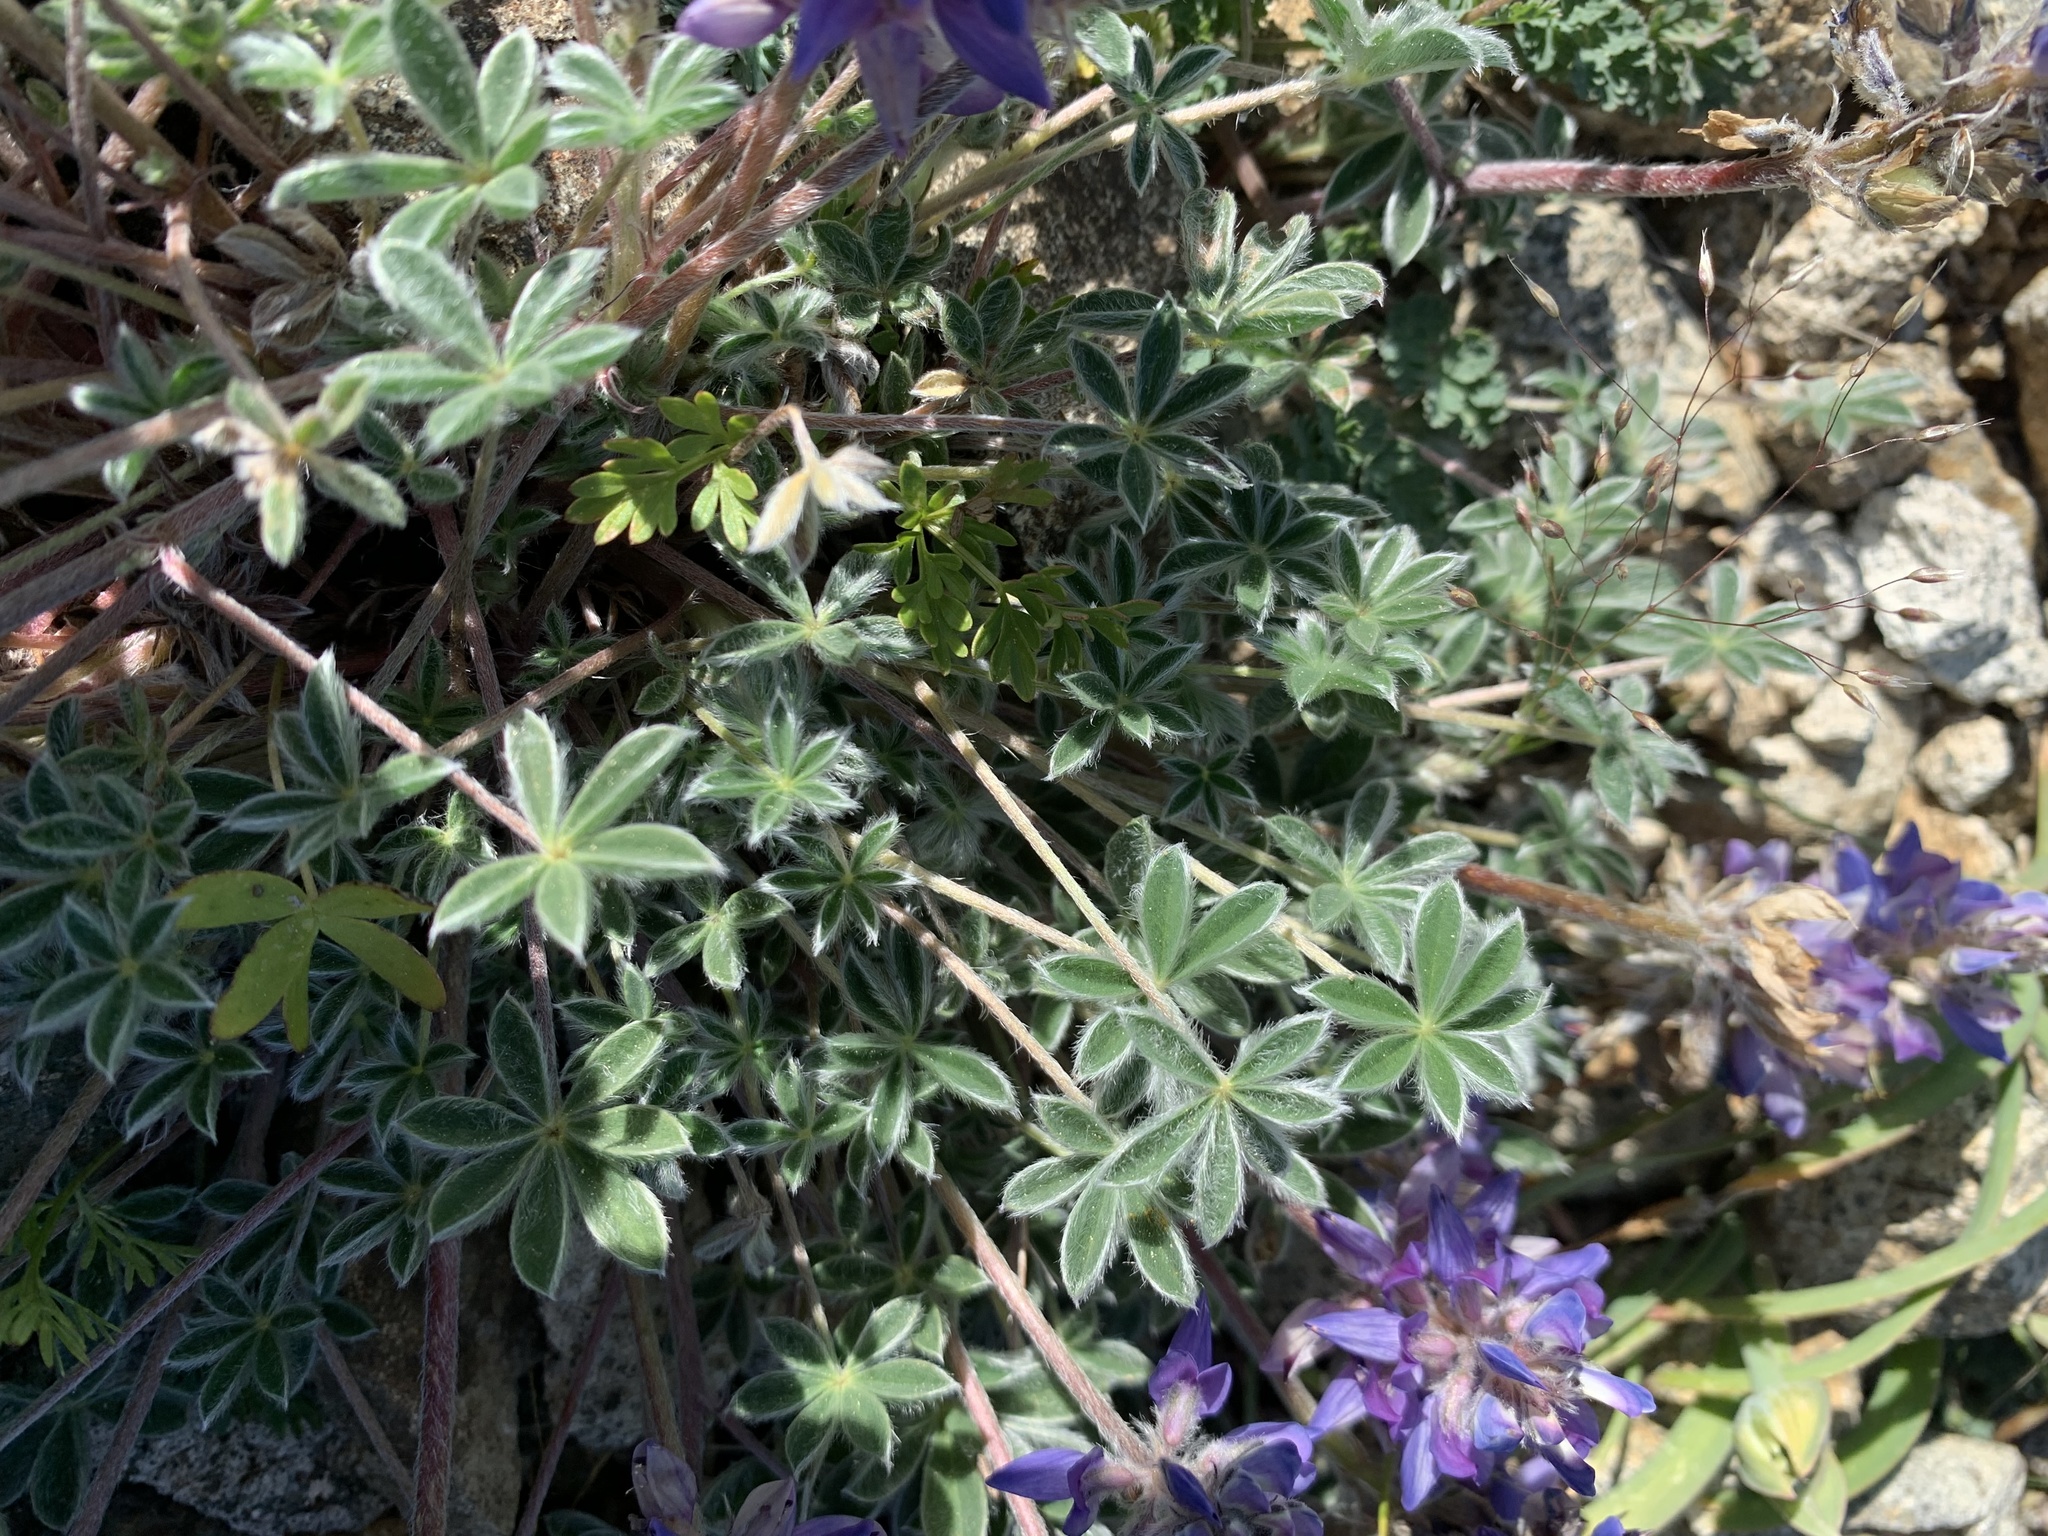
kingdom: Plantae
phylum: Tracheophyta
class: Magnoliopsida
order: Fabales
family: Fabaceae
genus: Lupinus
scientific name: Lupinus lepidus
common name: Prairie lupine
